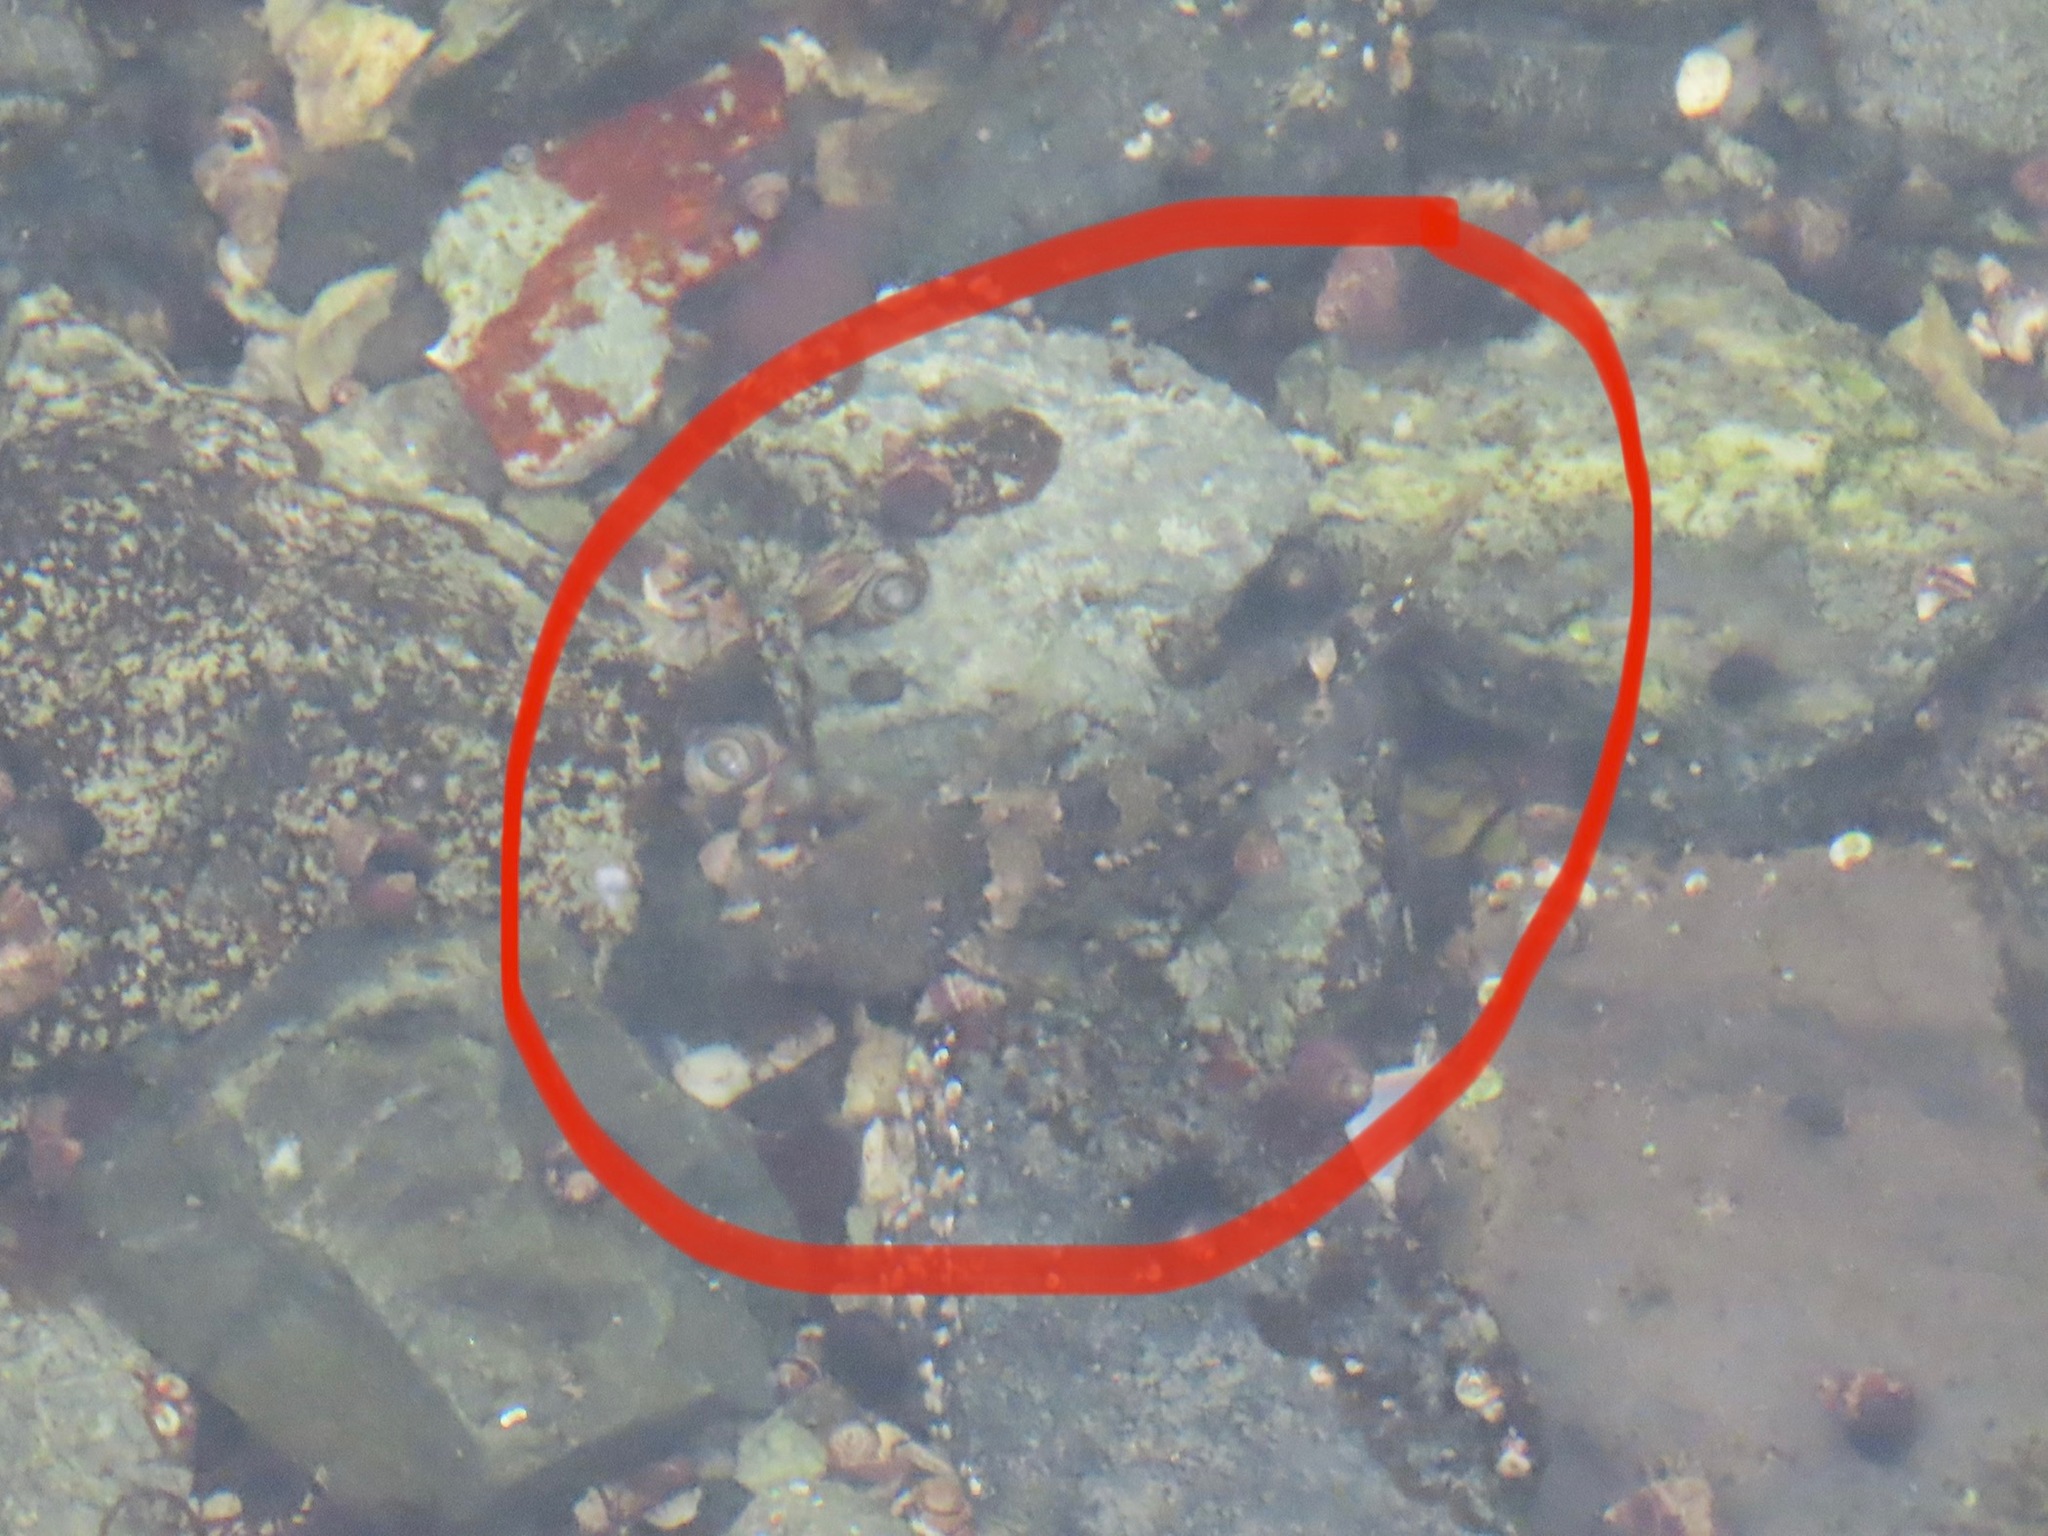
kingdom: Animalia
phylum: Chordata
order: Scorpaeniformes
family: Cottidae
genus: Oligocottus
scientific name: Oligocottus maculosus
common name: Tidepool sculpin
